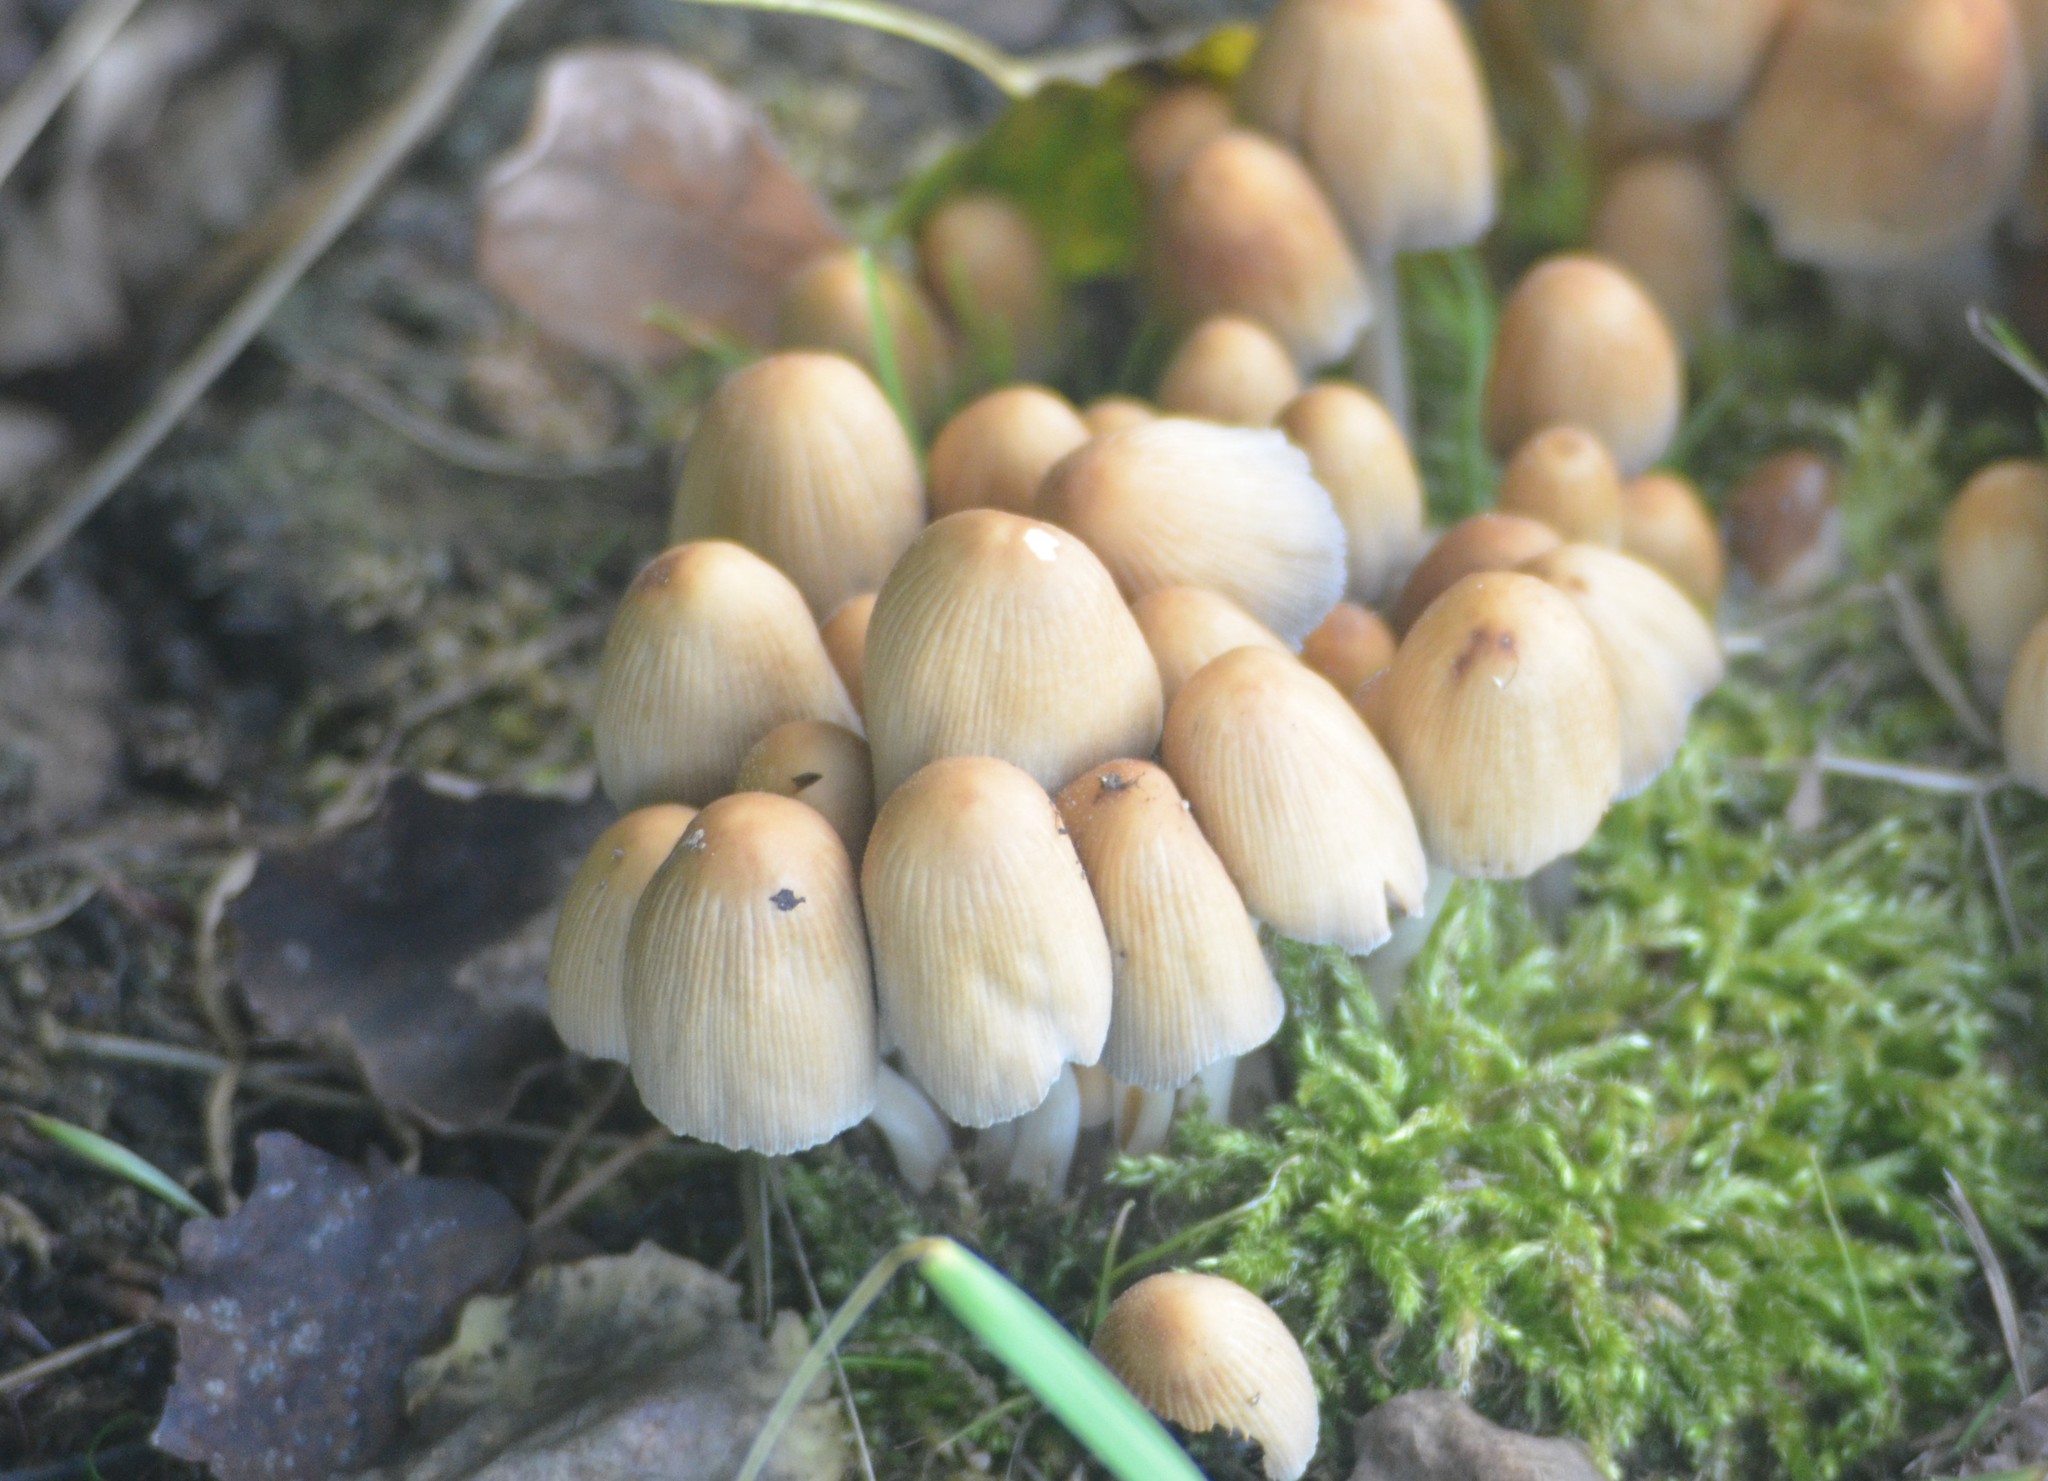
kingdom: Fungi
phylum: Basidiomycota
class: Agaricomycetes
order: Agaricales
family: Psathyrellaceae
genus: Coprinellus
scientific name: Coprinellus micaceus
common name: Glistening ink-cap
